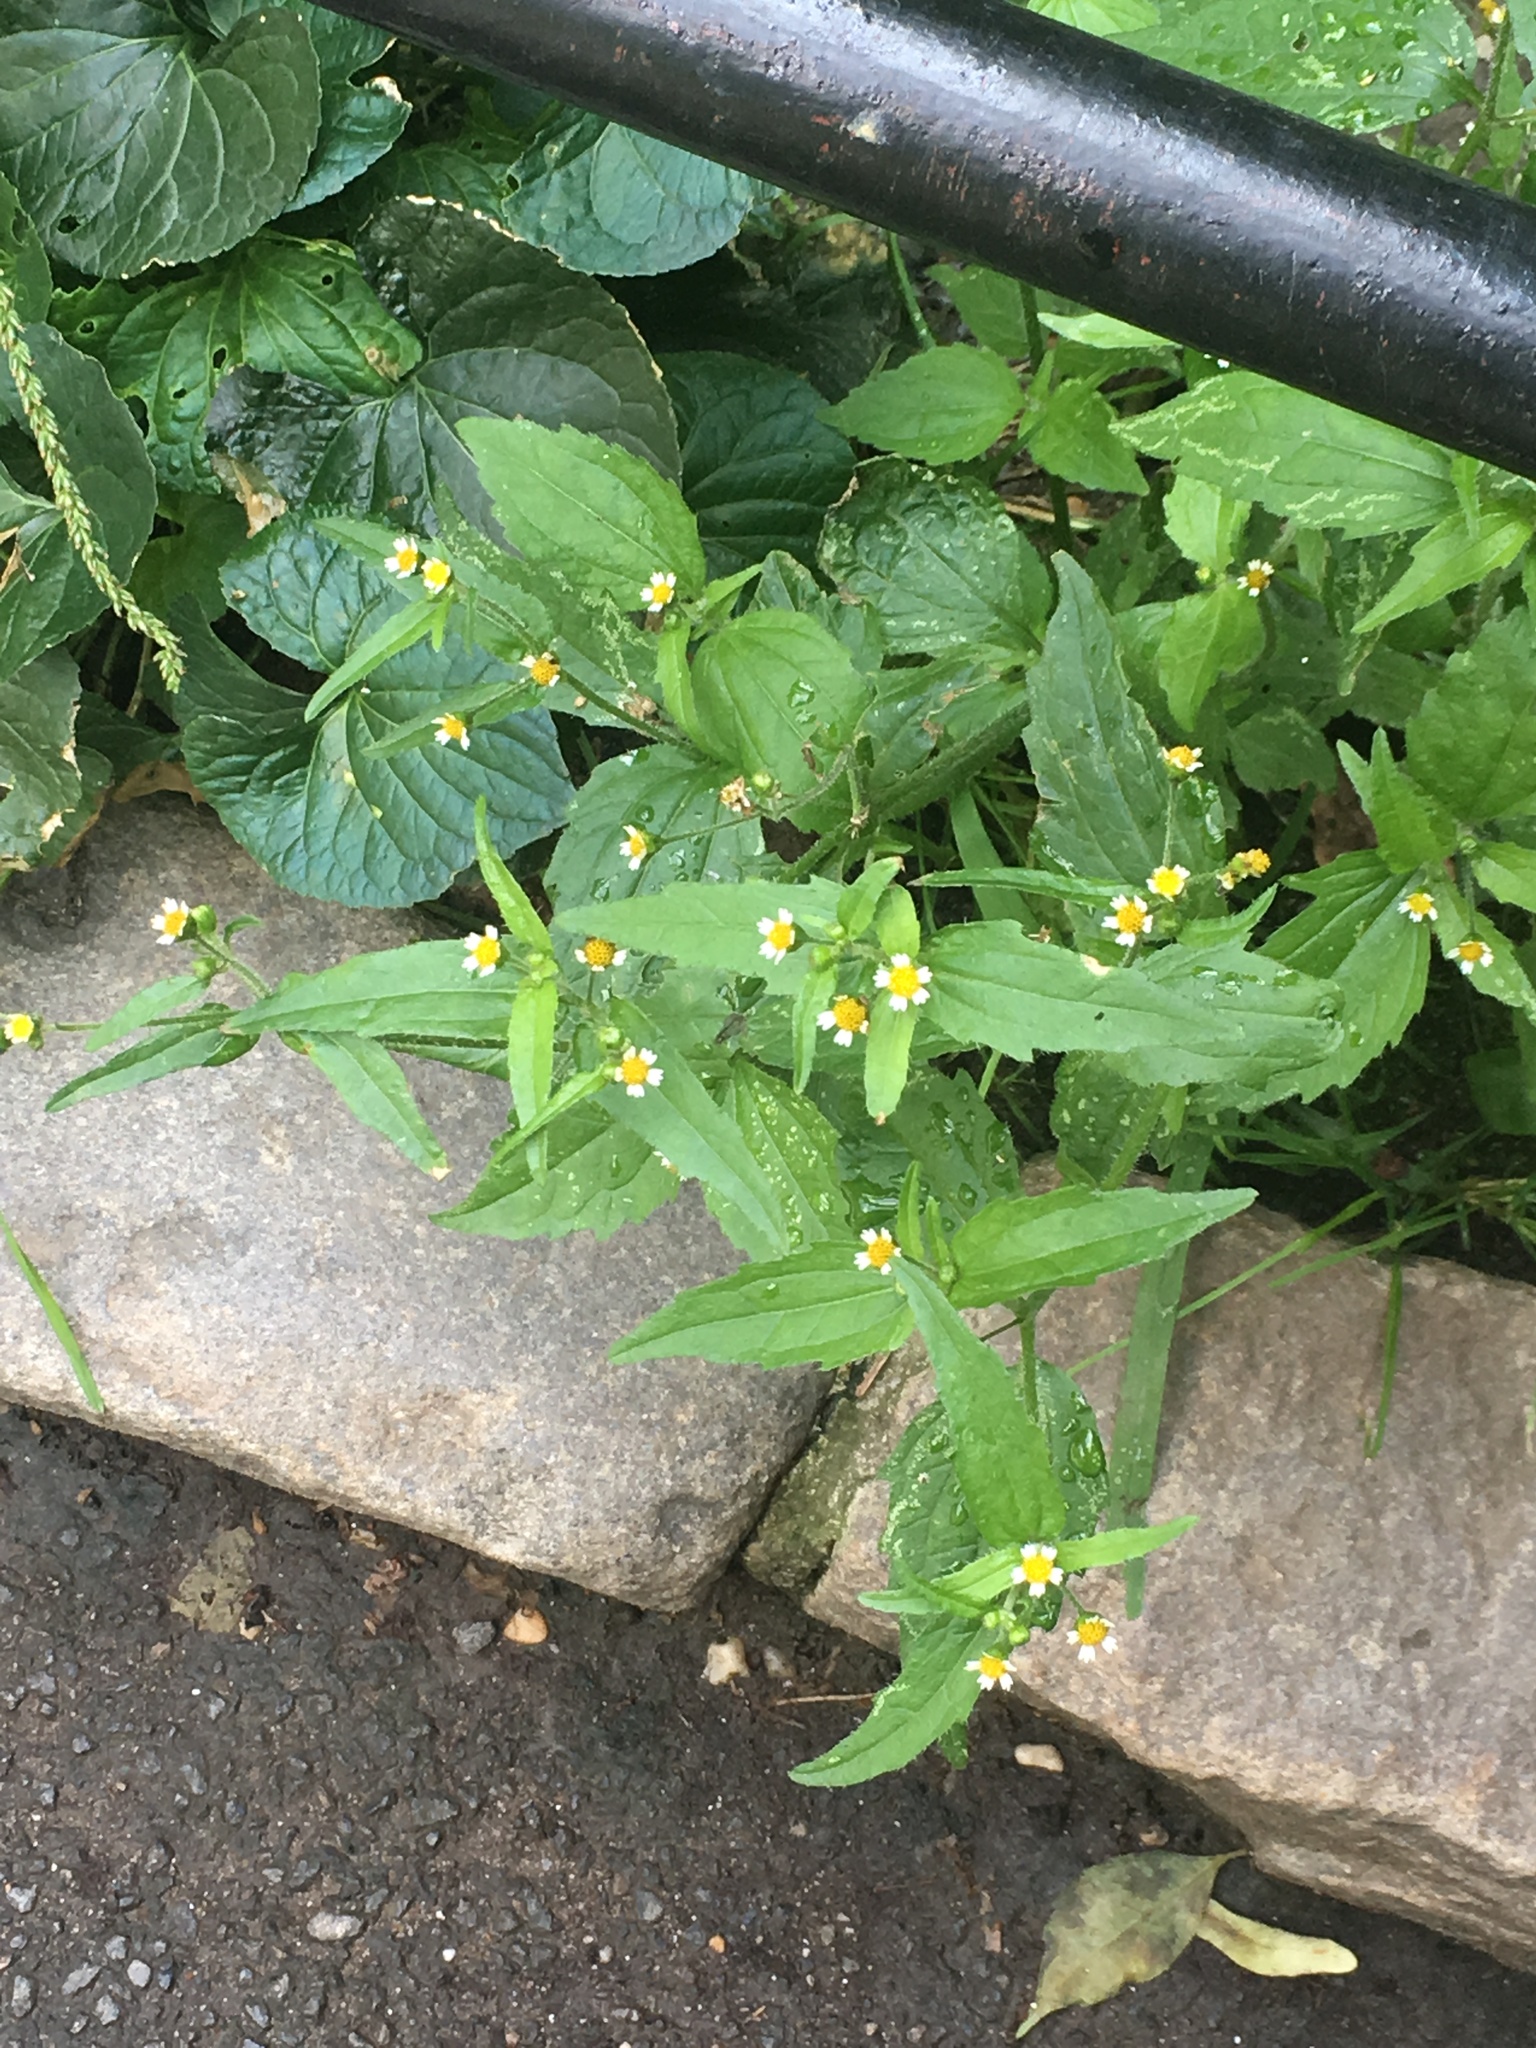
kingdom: Plantae
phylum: Tracheophyta
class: Magnoliopsida
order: Asterales
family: Asteraceae
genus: Galinsoga
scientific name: Galinsoga quadriradiata
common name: Shaggy soldier
